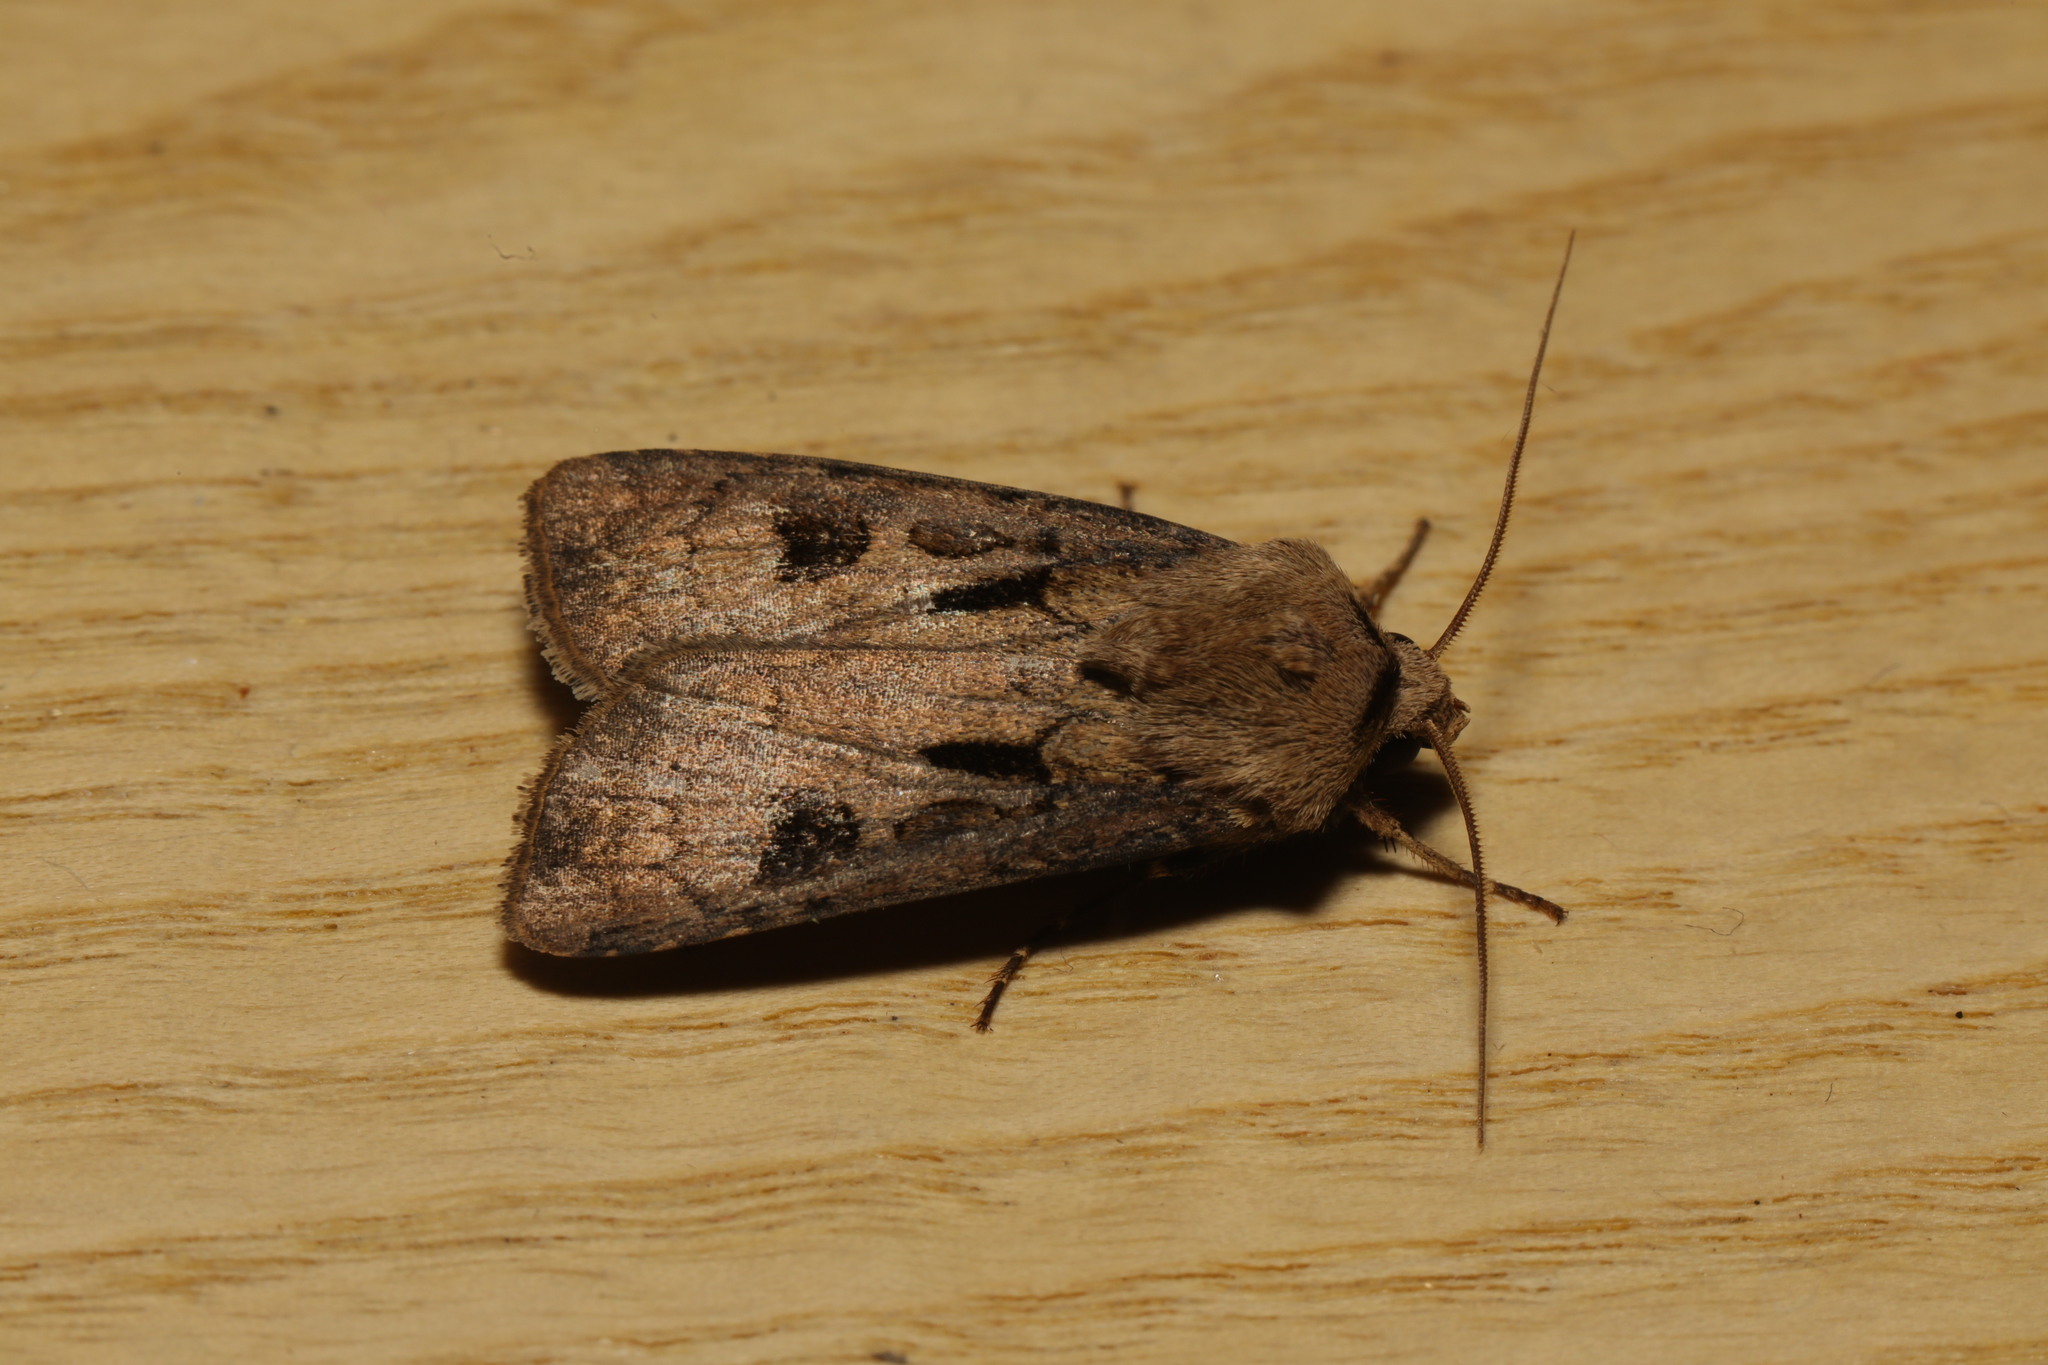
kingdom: Animalia
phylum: Arthropoda
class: Insecta
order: Lepidoptera
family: Noctuidae
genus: Agrotis
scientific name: Agrotis exclamationis
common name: Heart and dart
